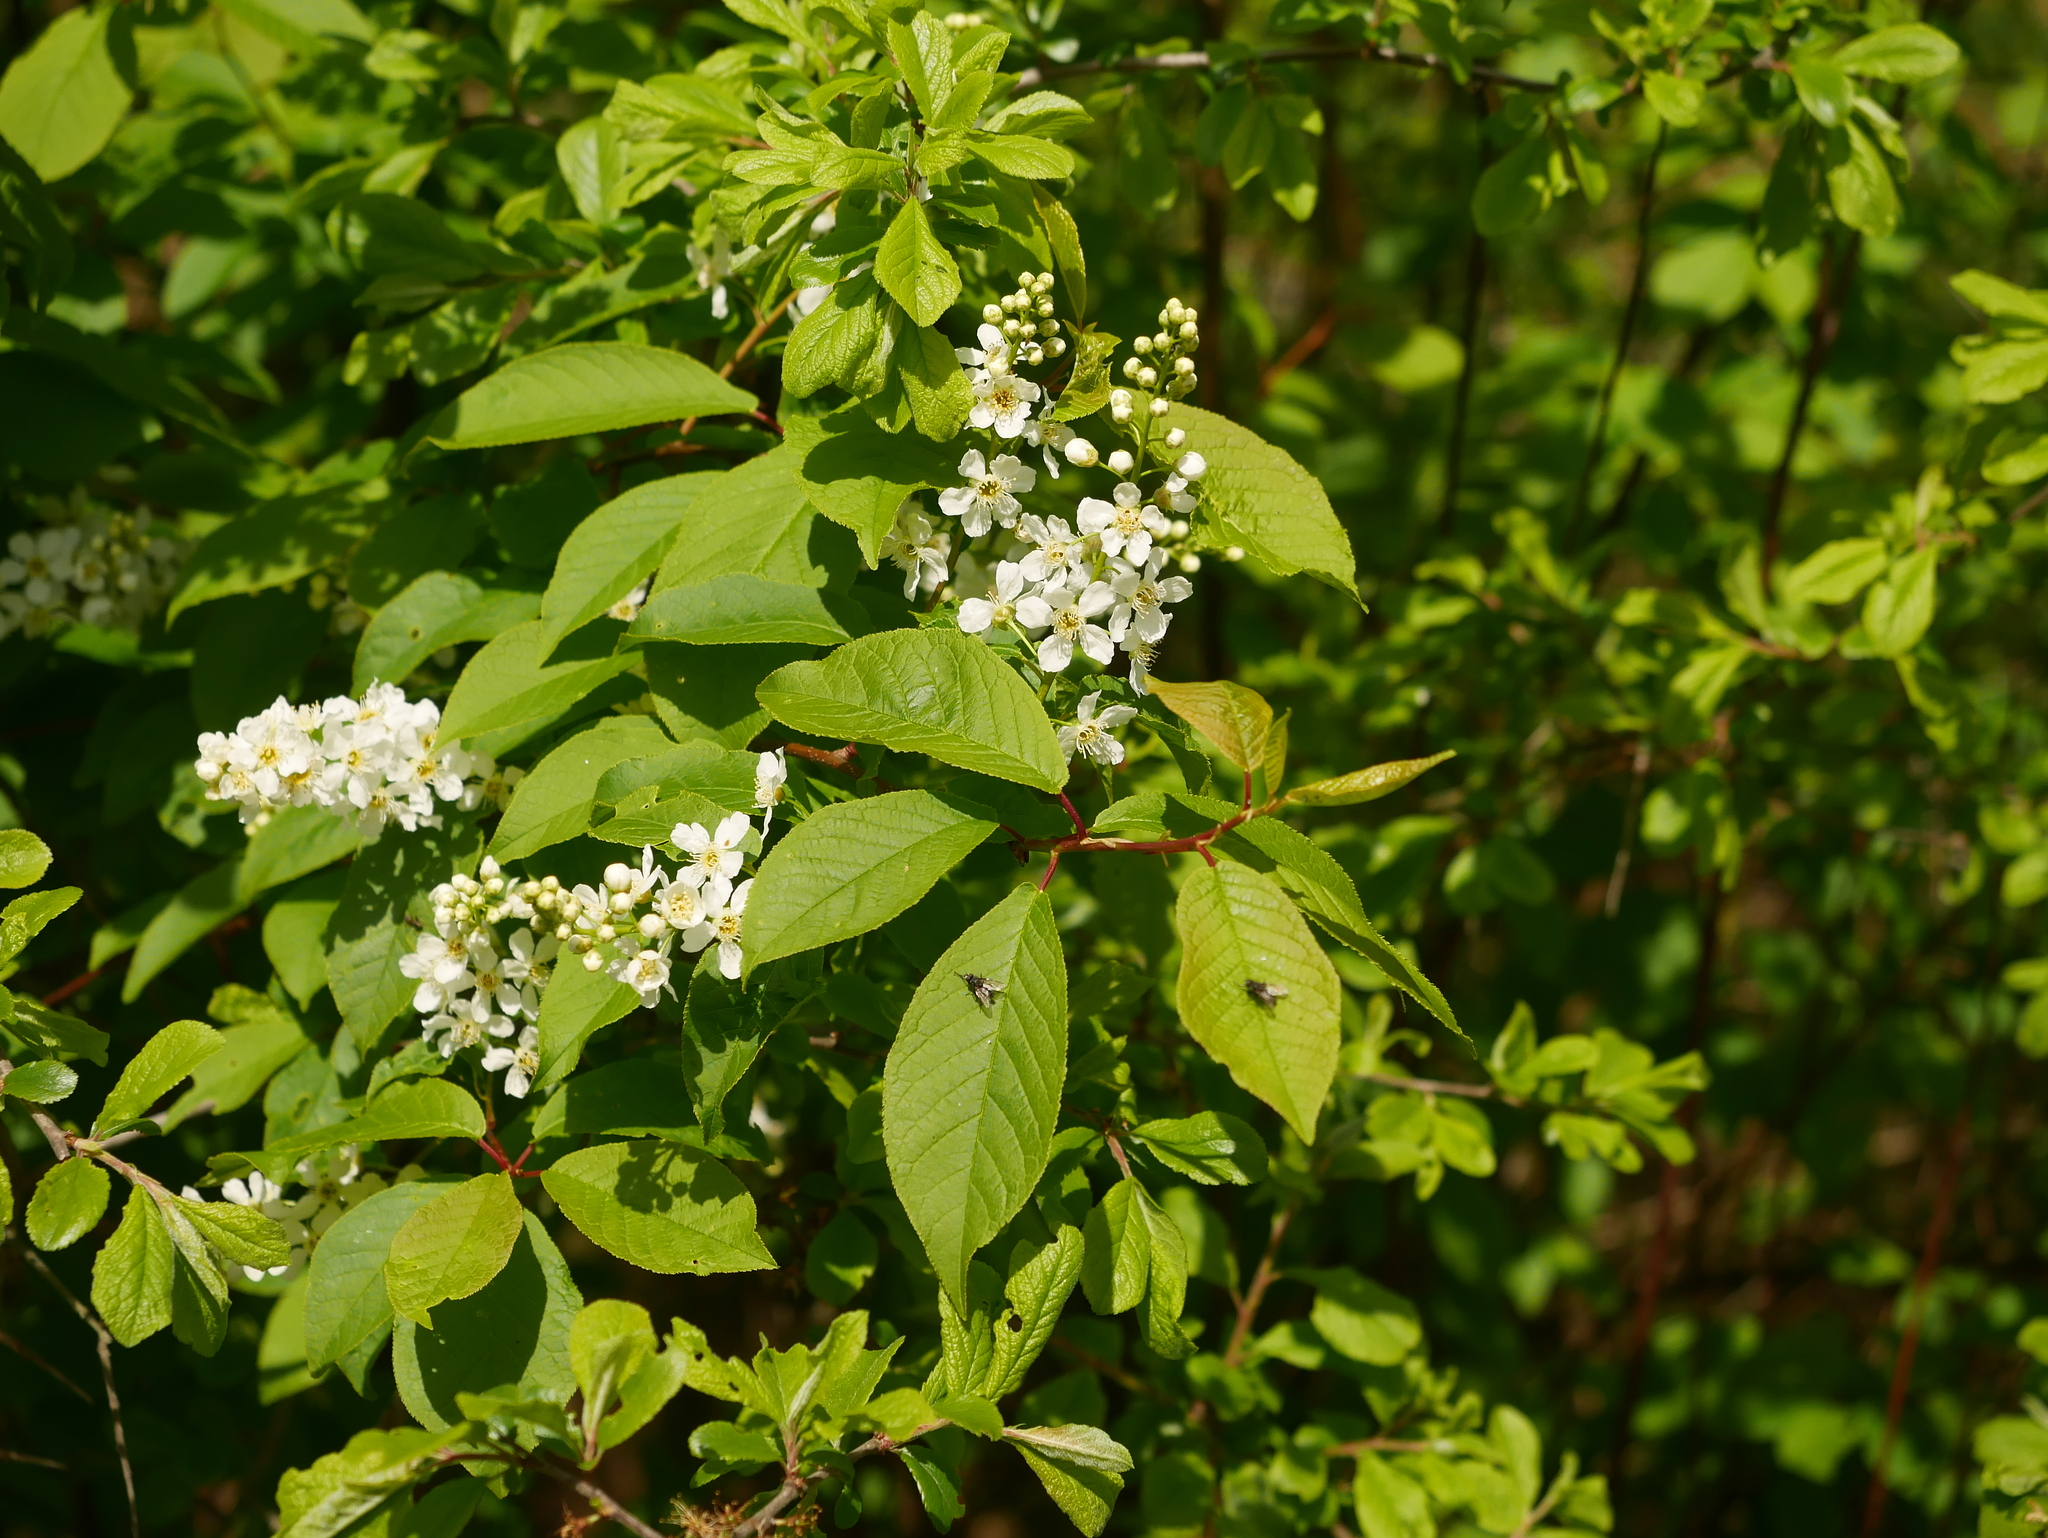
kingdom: Plantae
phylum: Tracheophyta
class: Magnoliopsida
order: Rosales
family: Rosaceae
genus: Prunus
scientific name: Prunus padus
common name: Bird cherry
